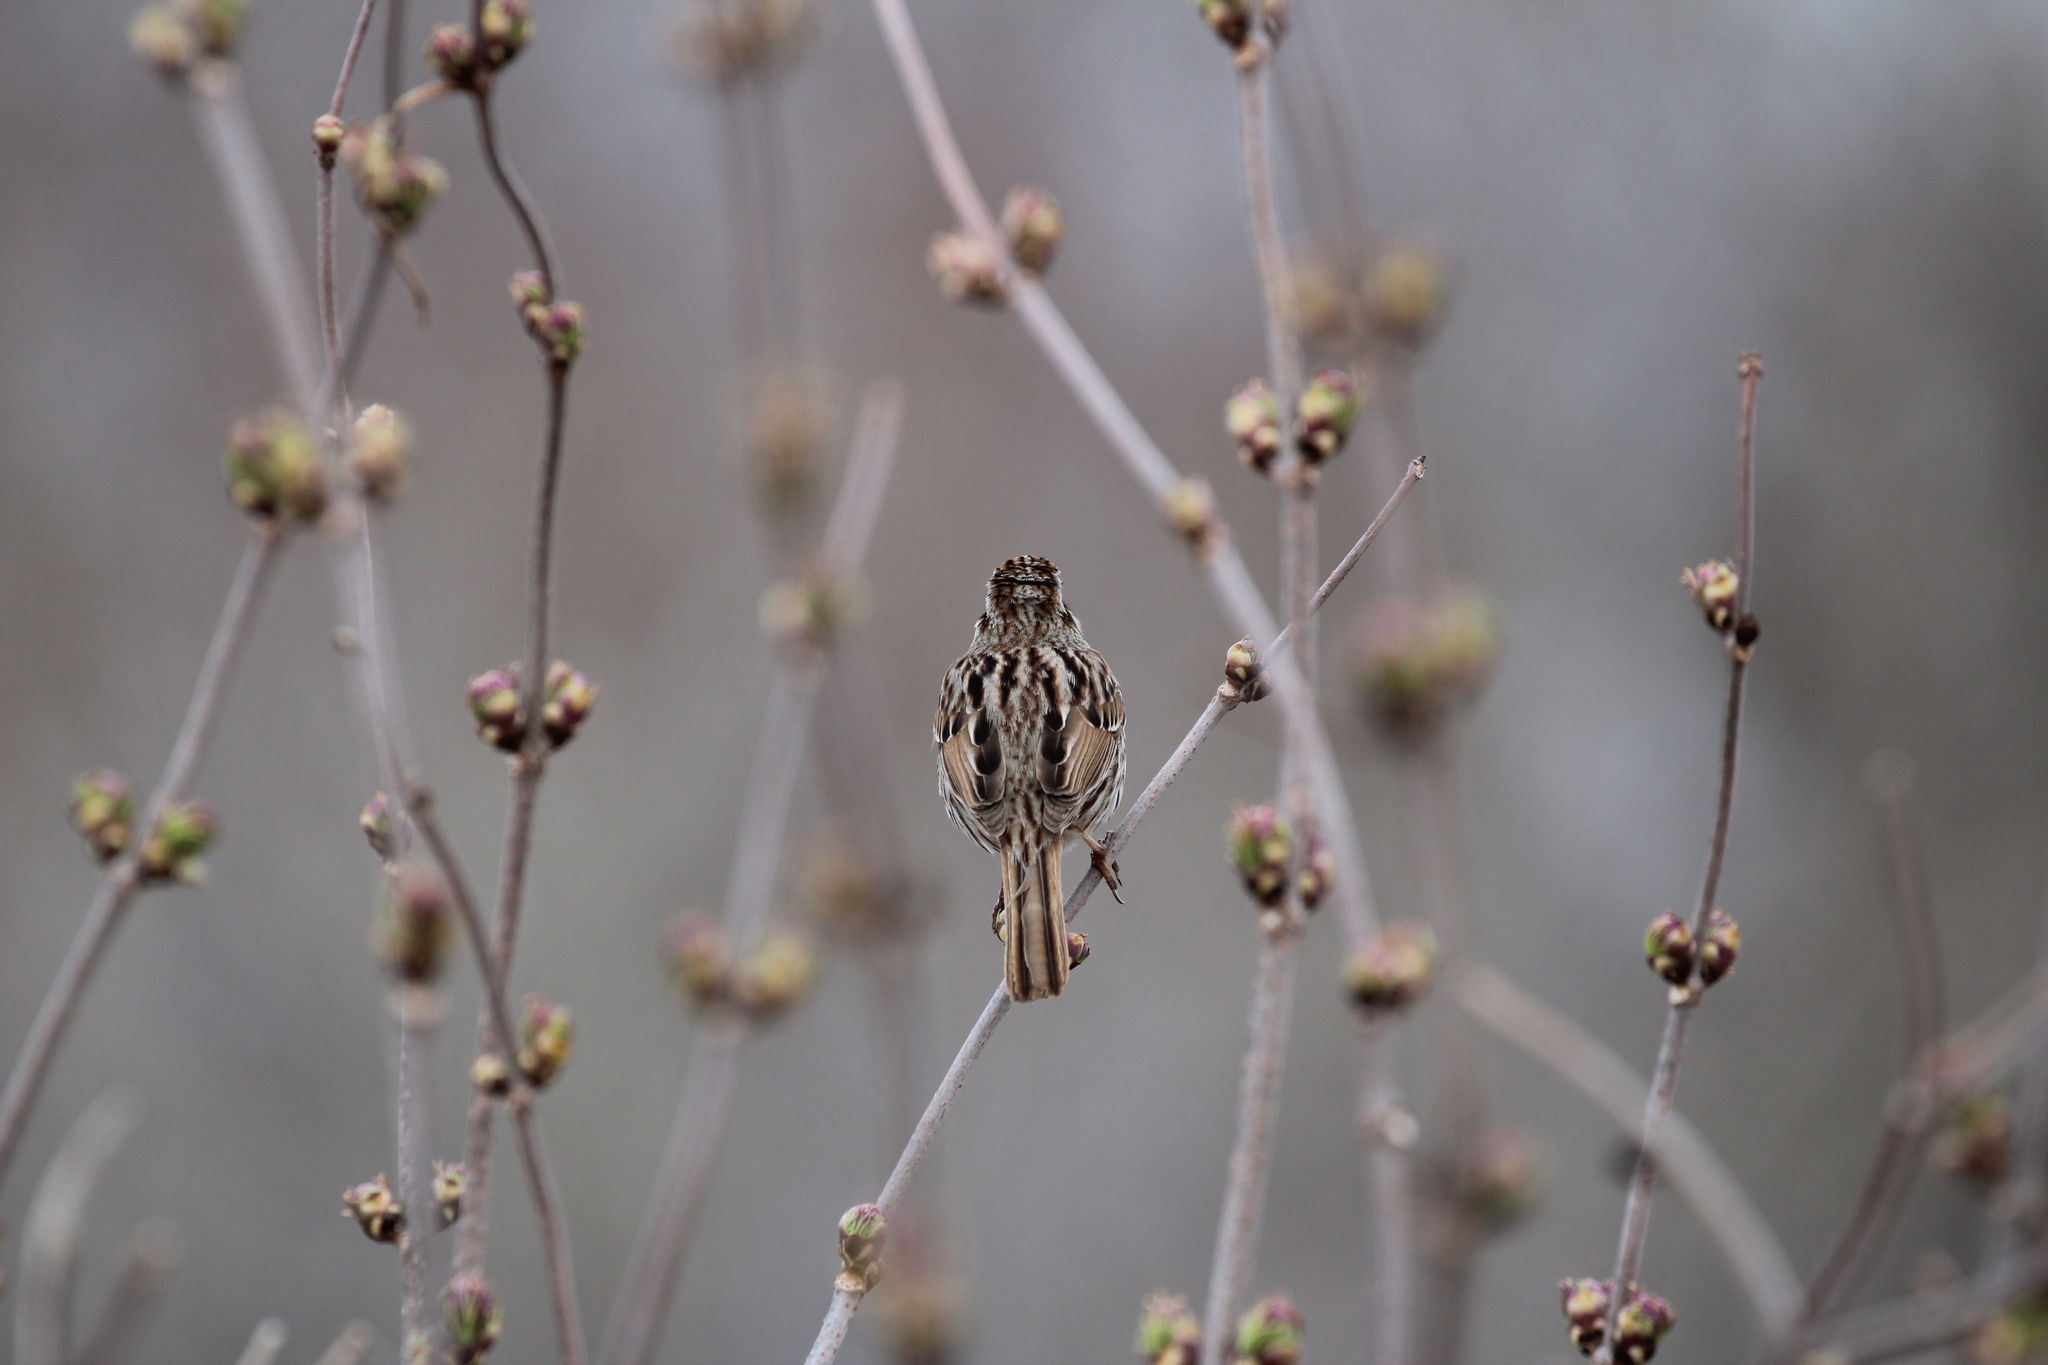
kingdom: Animalia
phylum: Chordata
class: Aves
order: Passeriformes
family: Passerellidae
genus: Melospiza
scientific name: Melospiza melodia
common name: Song sparrow
